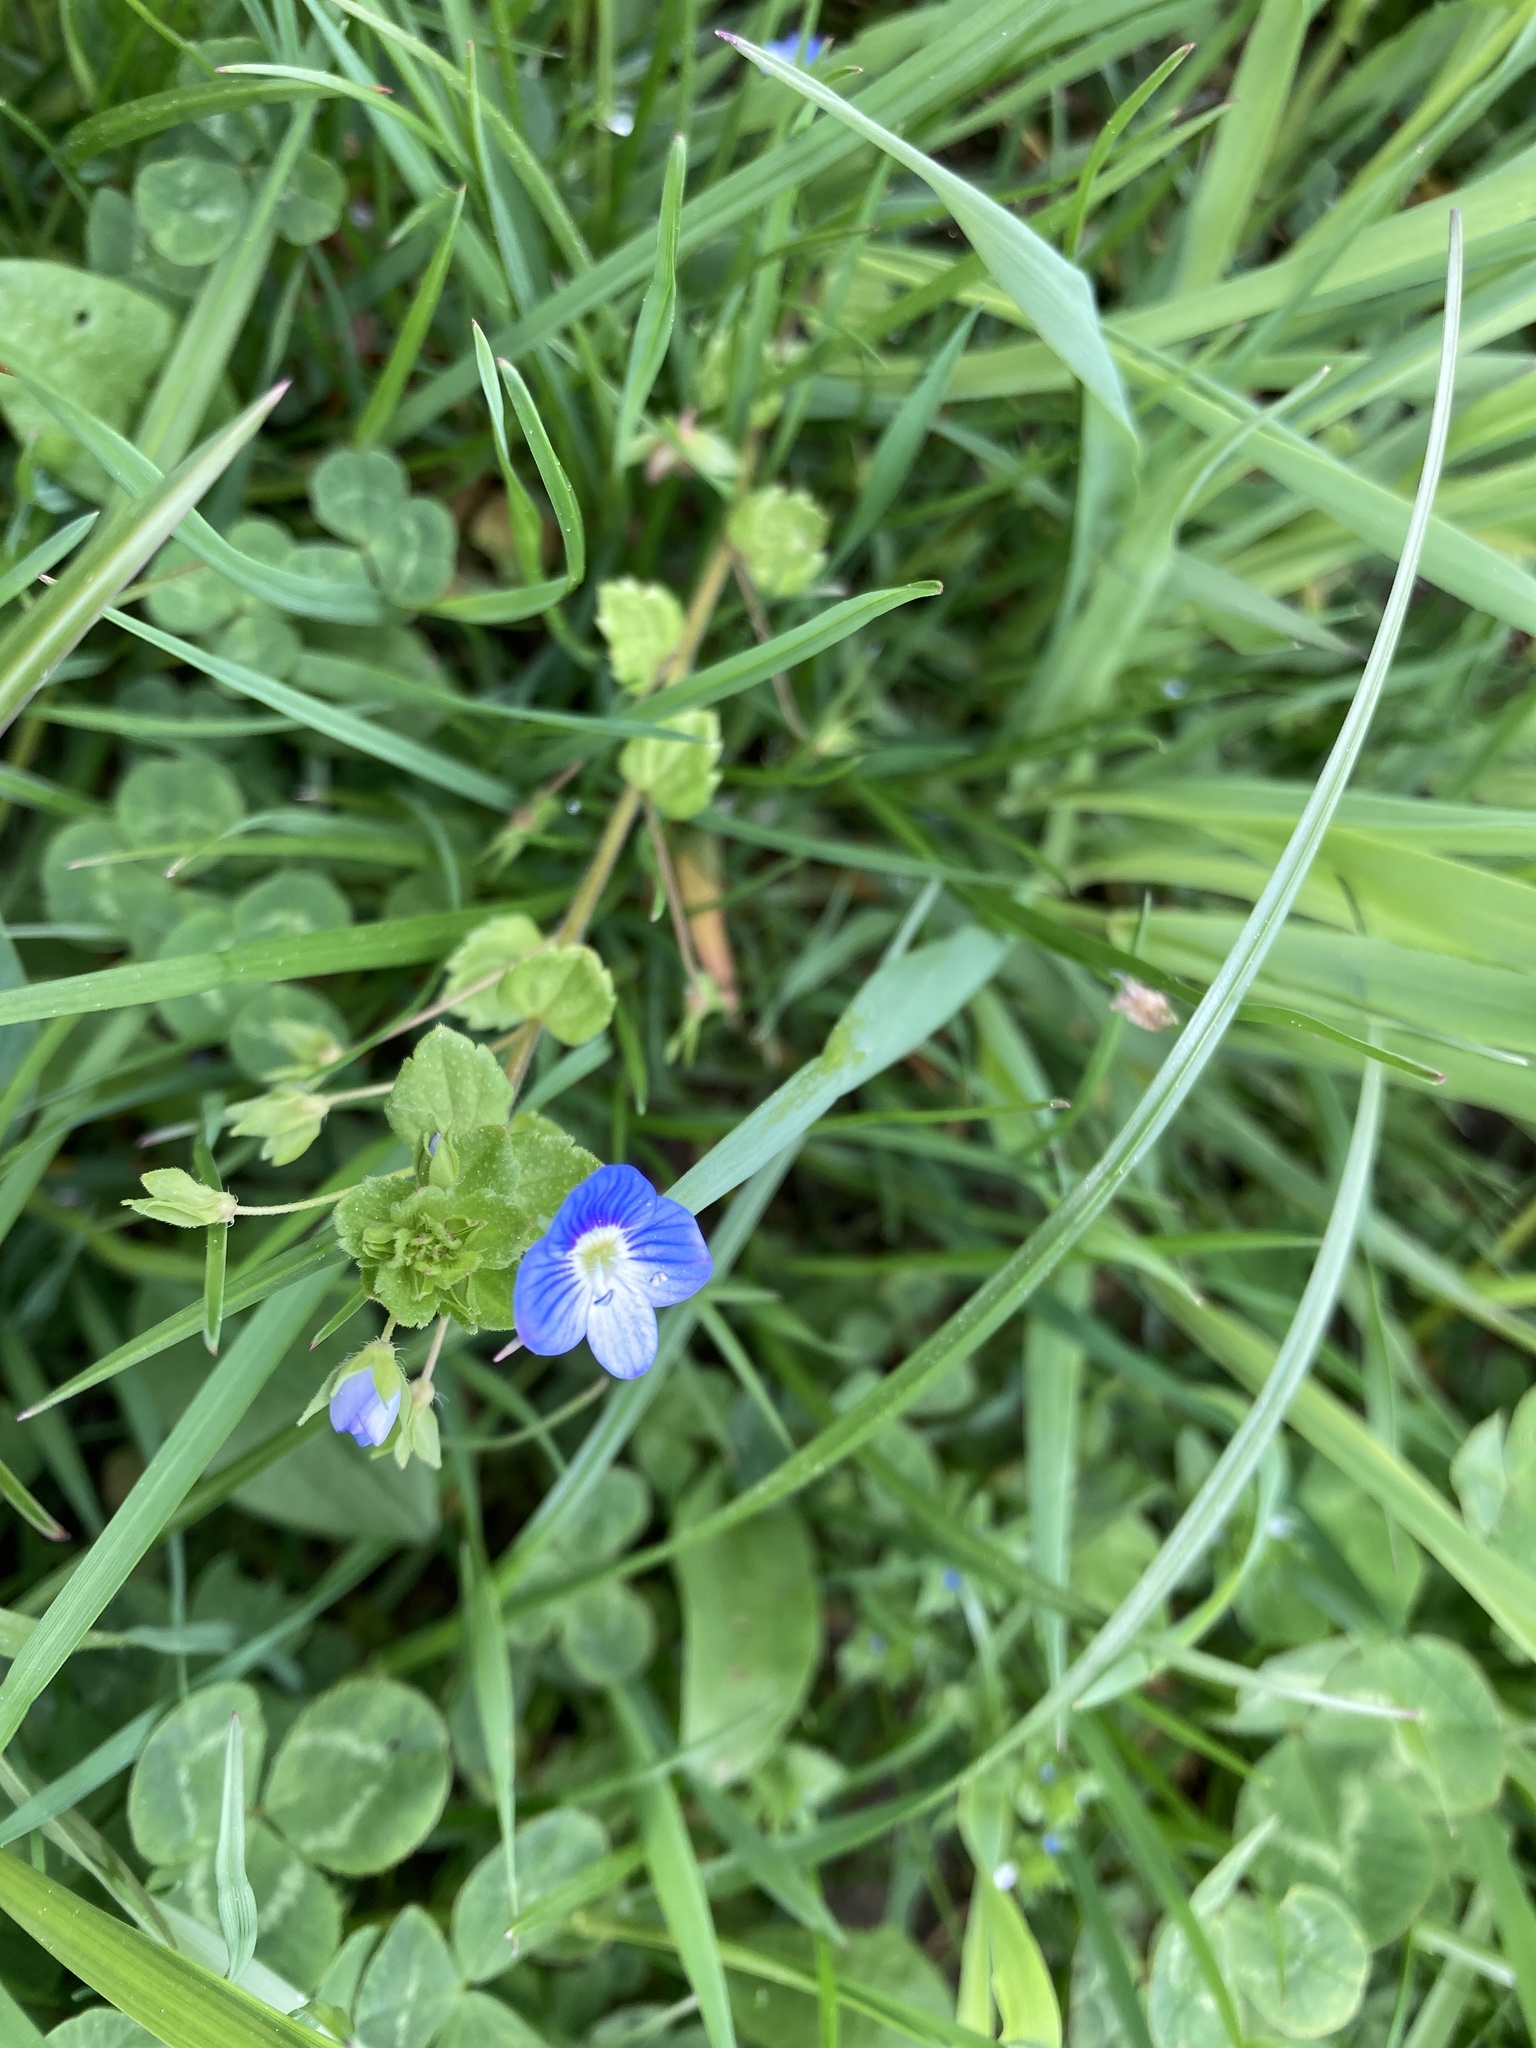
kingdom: Plantae
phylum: Tracheophyta
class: Magnoliopsida
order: Lamiales
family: Plantaginaceae
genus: Veronica
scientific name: Veronica persica
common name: Common field-speedwell
